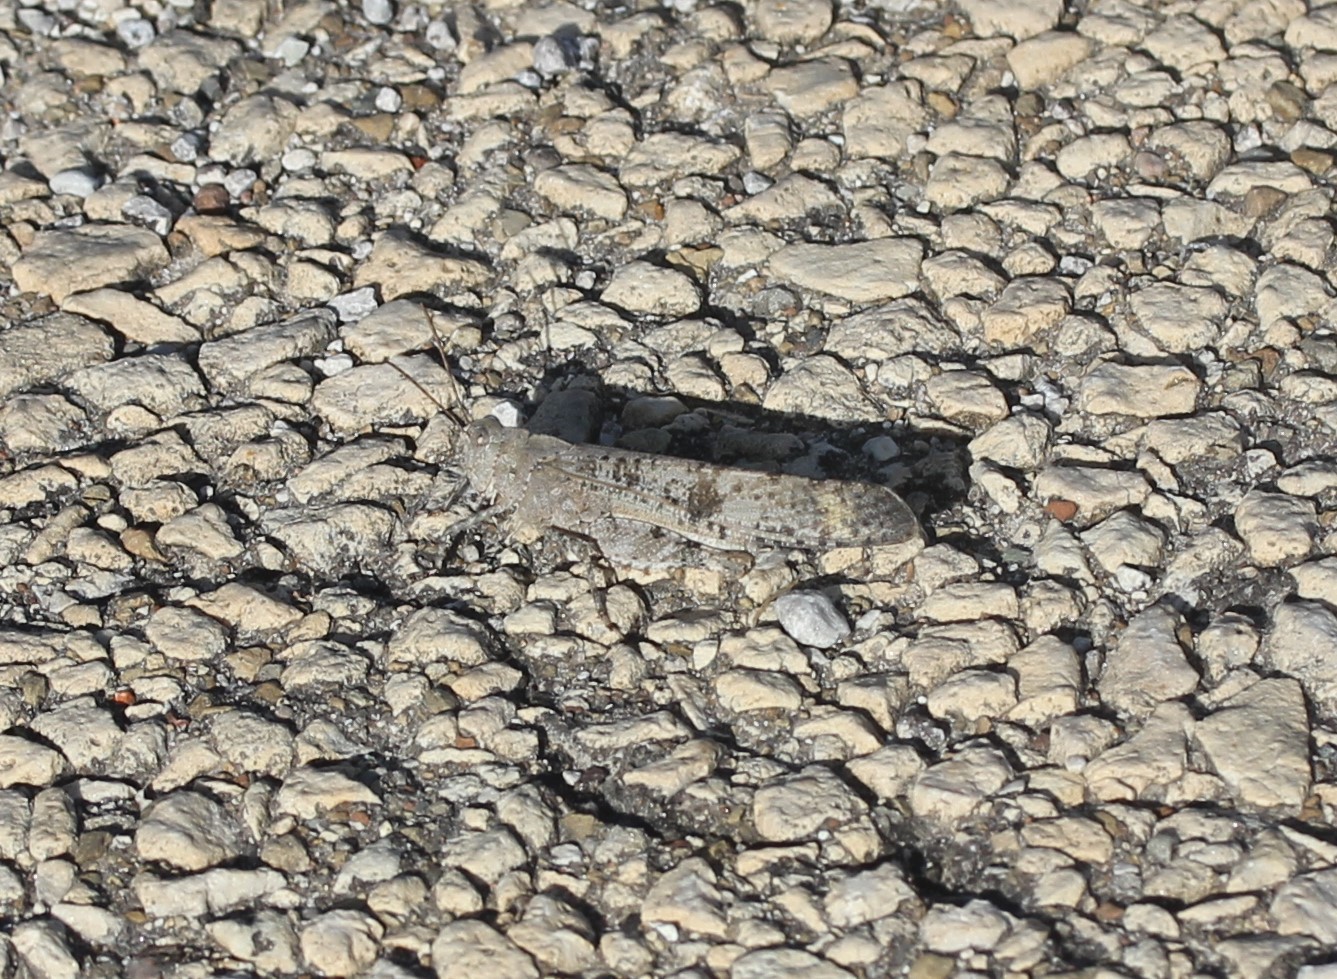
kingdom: Animalia
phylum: Arthropoda
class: Insecta
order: Orthoptera
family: Acrididae
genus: Dissosteira
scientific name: Dissosteira carolina
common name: Carolina grasshopper
